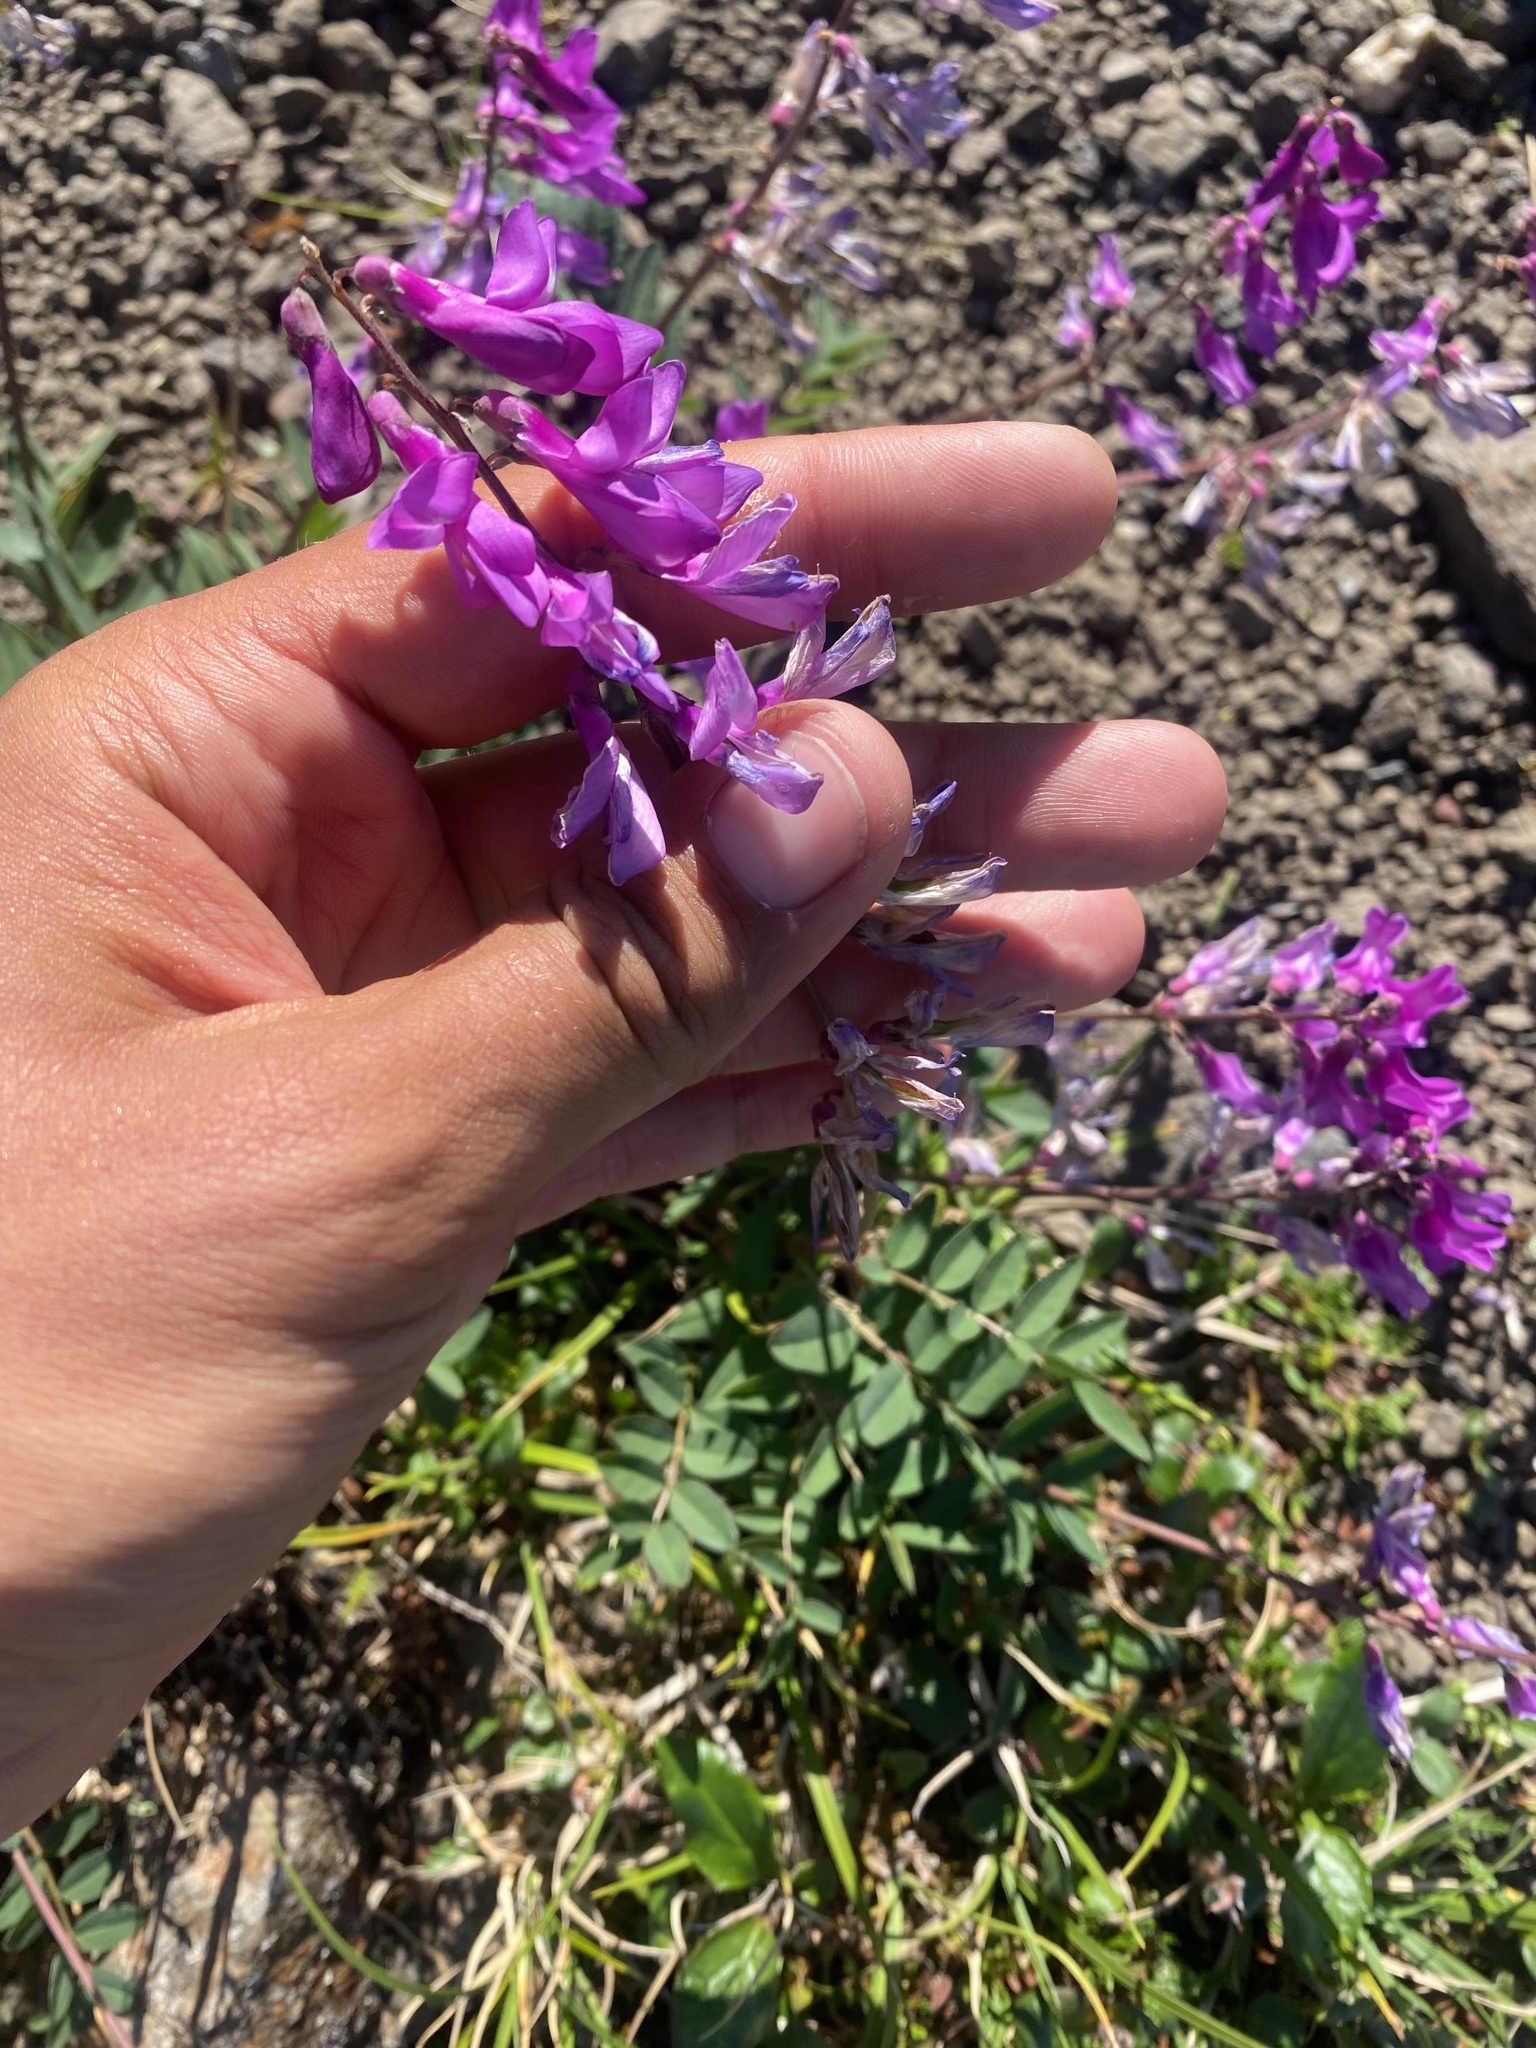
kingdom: Plantae
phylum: Tracheophyta
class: Magnoliopsida
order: Fabales
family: Fabaceae
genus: Hedysarum
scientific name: Hedysarum hedysaroides
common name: Alpine french-honeysuckle
